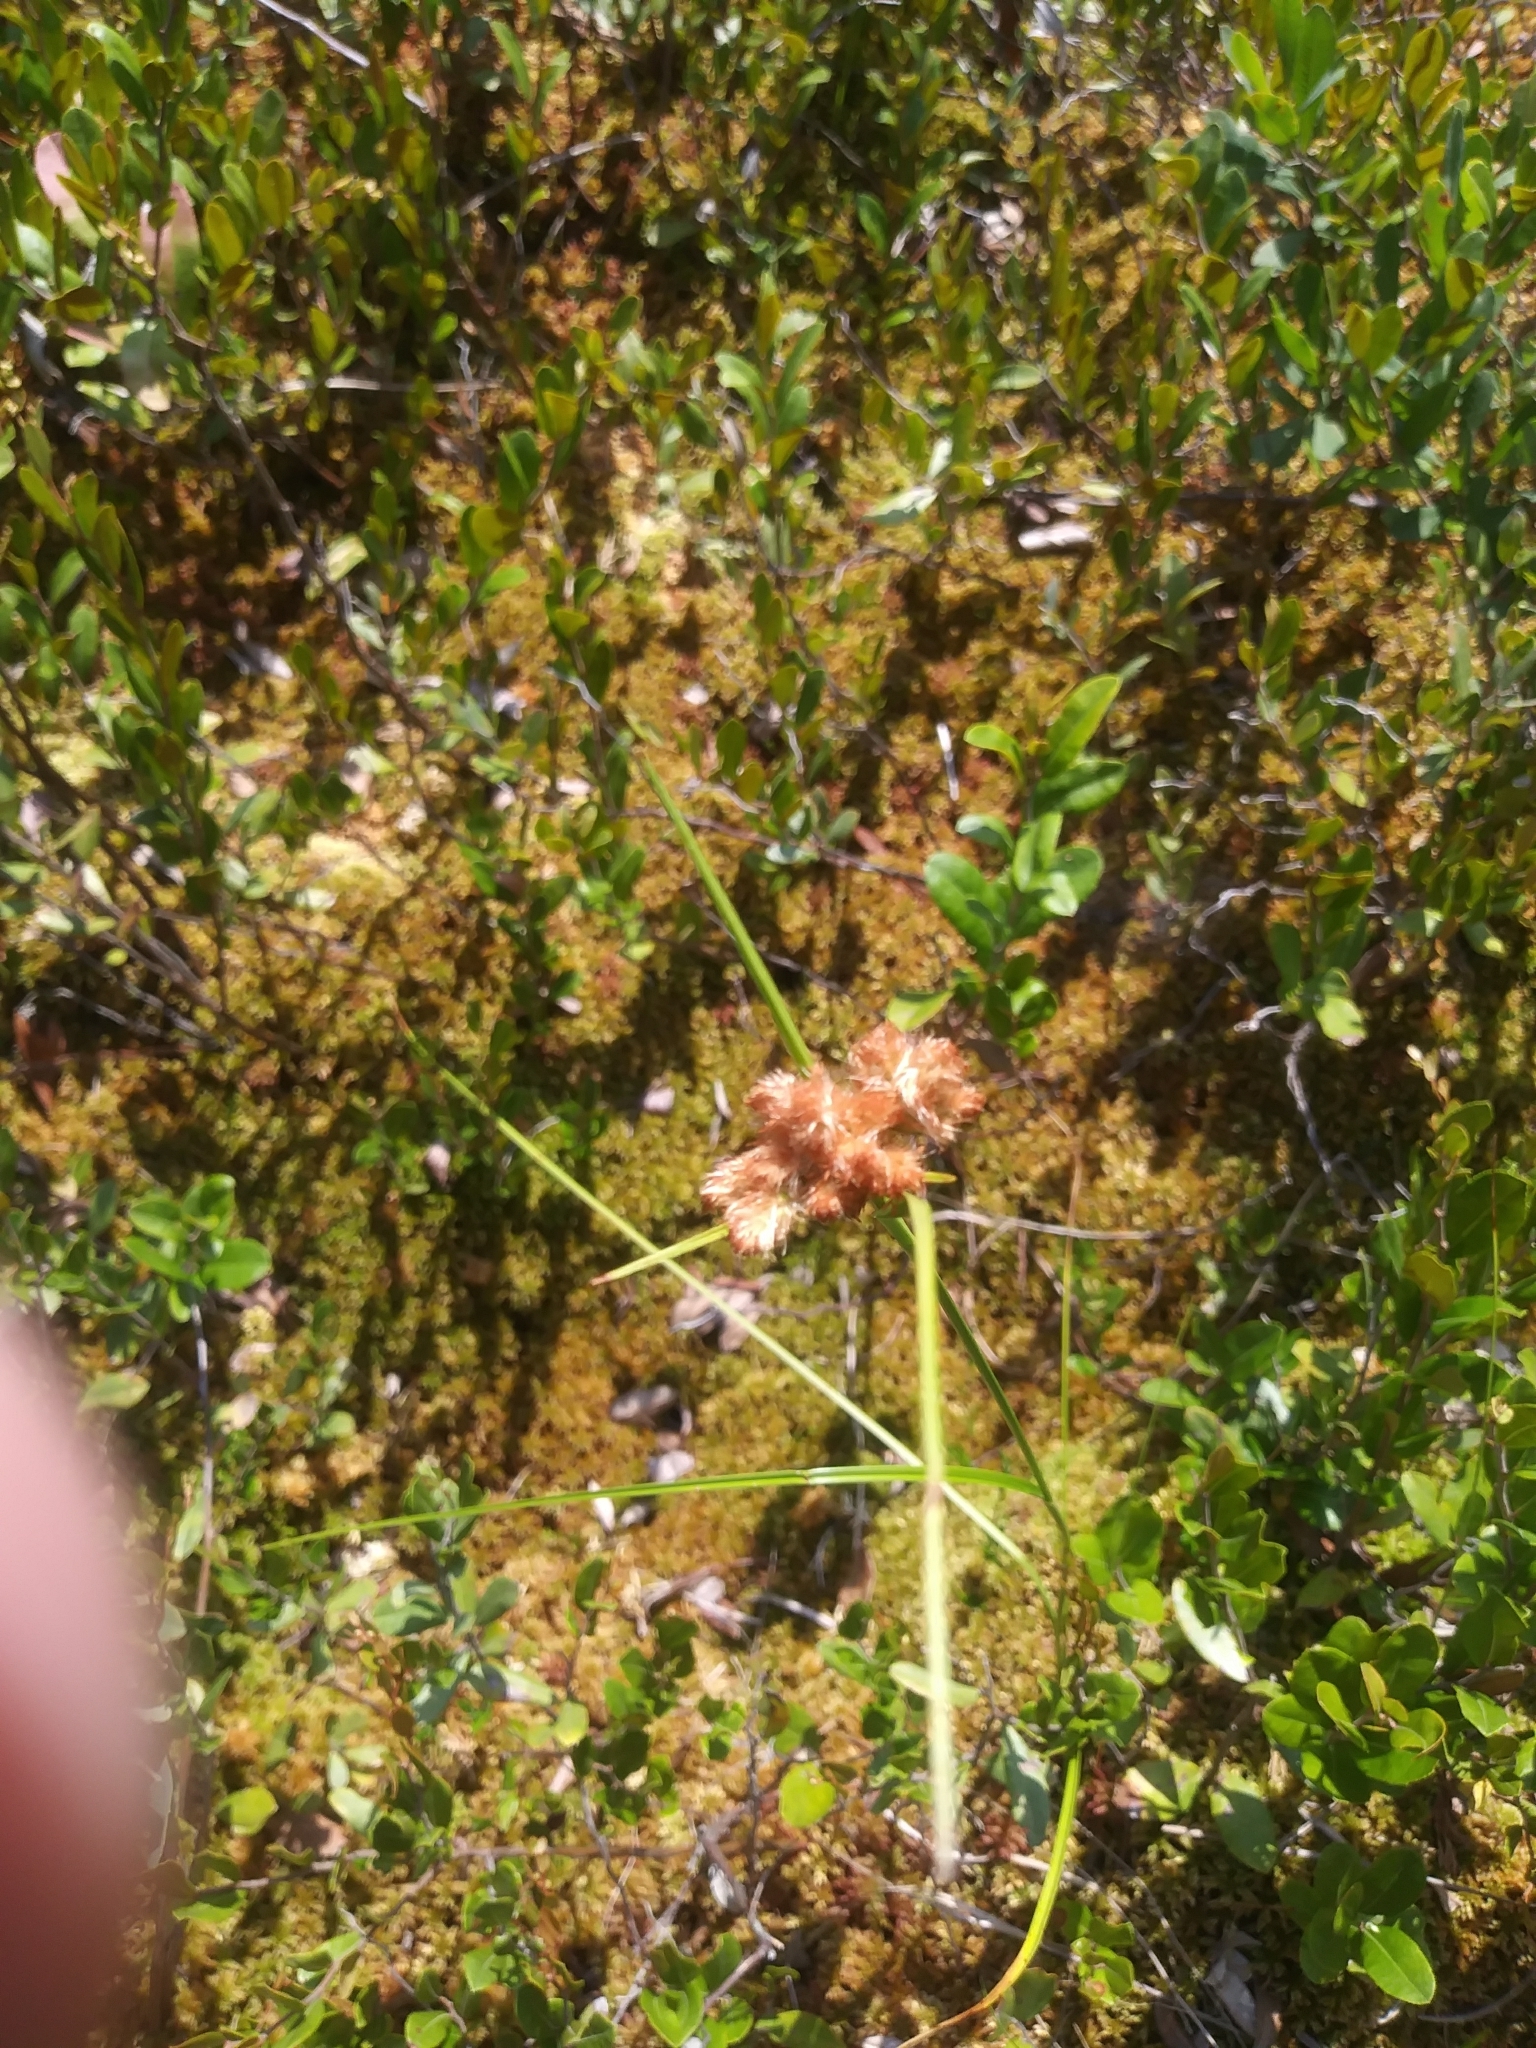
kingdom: Plantae
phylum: Tracheophyta
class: Liliopsida
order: Poales
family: Cyperaceae
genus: Eriophorum
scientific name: Eriophorum virginicum
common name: Tawny cottongrass
